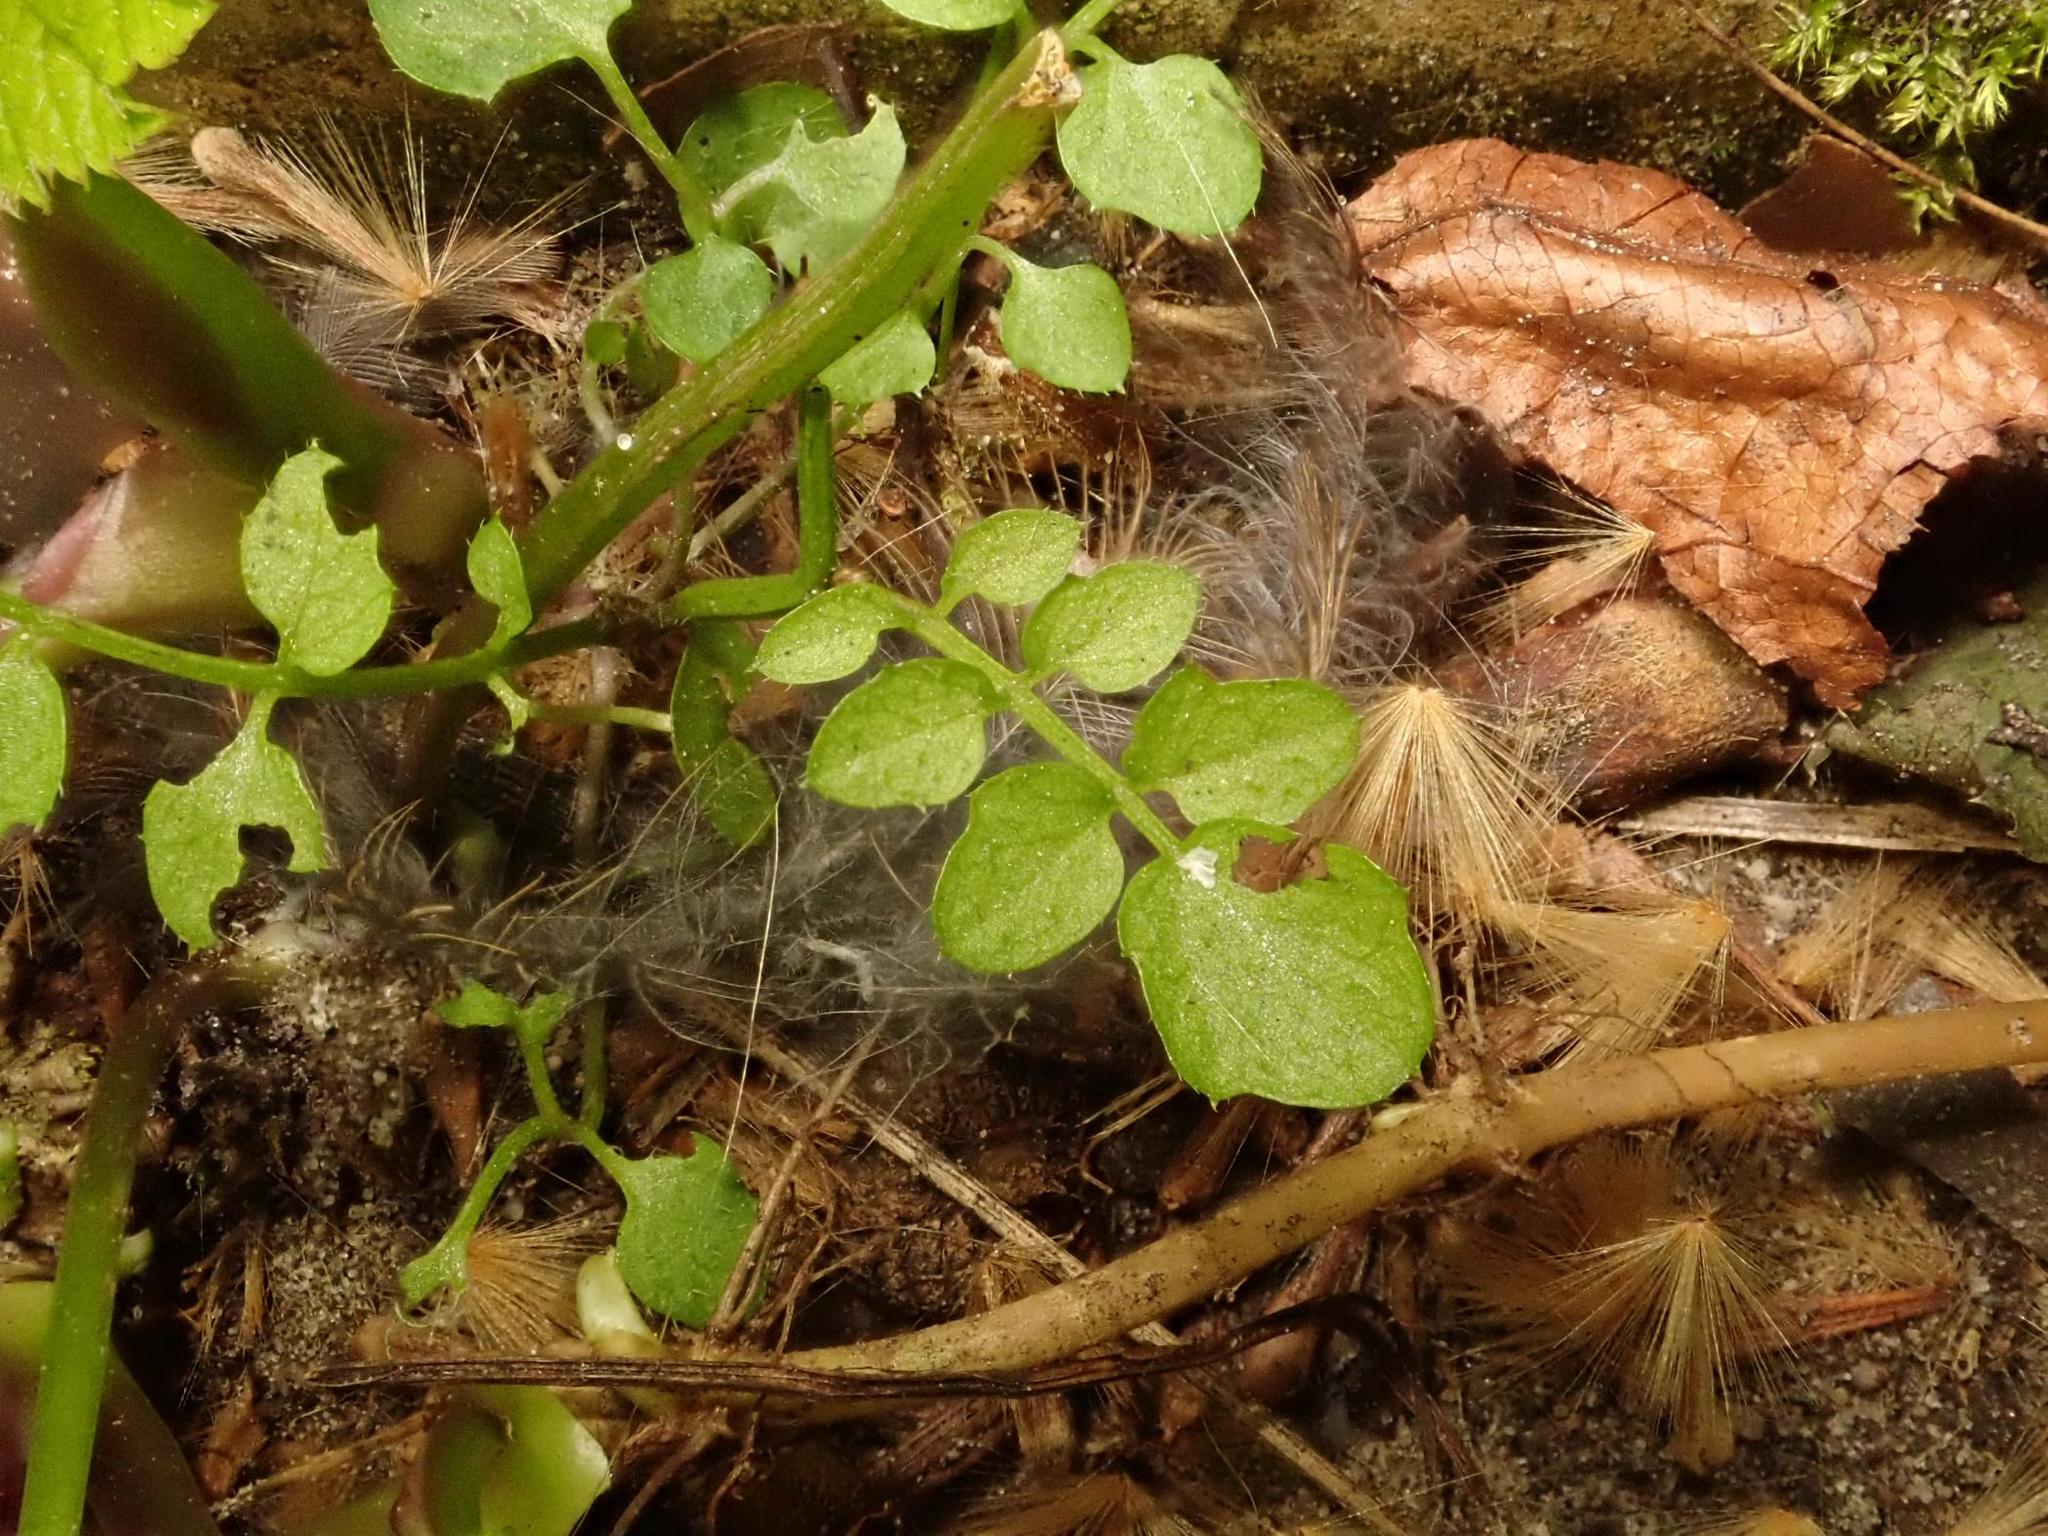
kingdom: Plantae
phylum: Tracheophyta
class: Magnoliopsida
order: Brassicales
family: Brassicaceae
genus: Cardamine
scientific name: Cardamine hirsuta
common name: Hairy bittercress
